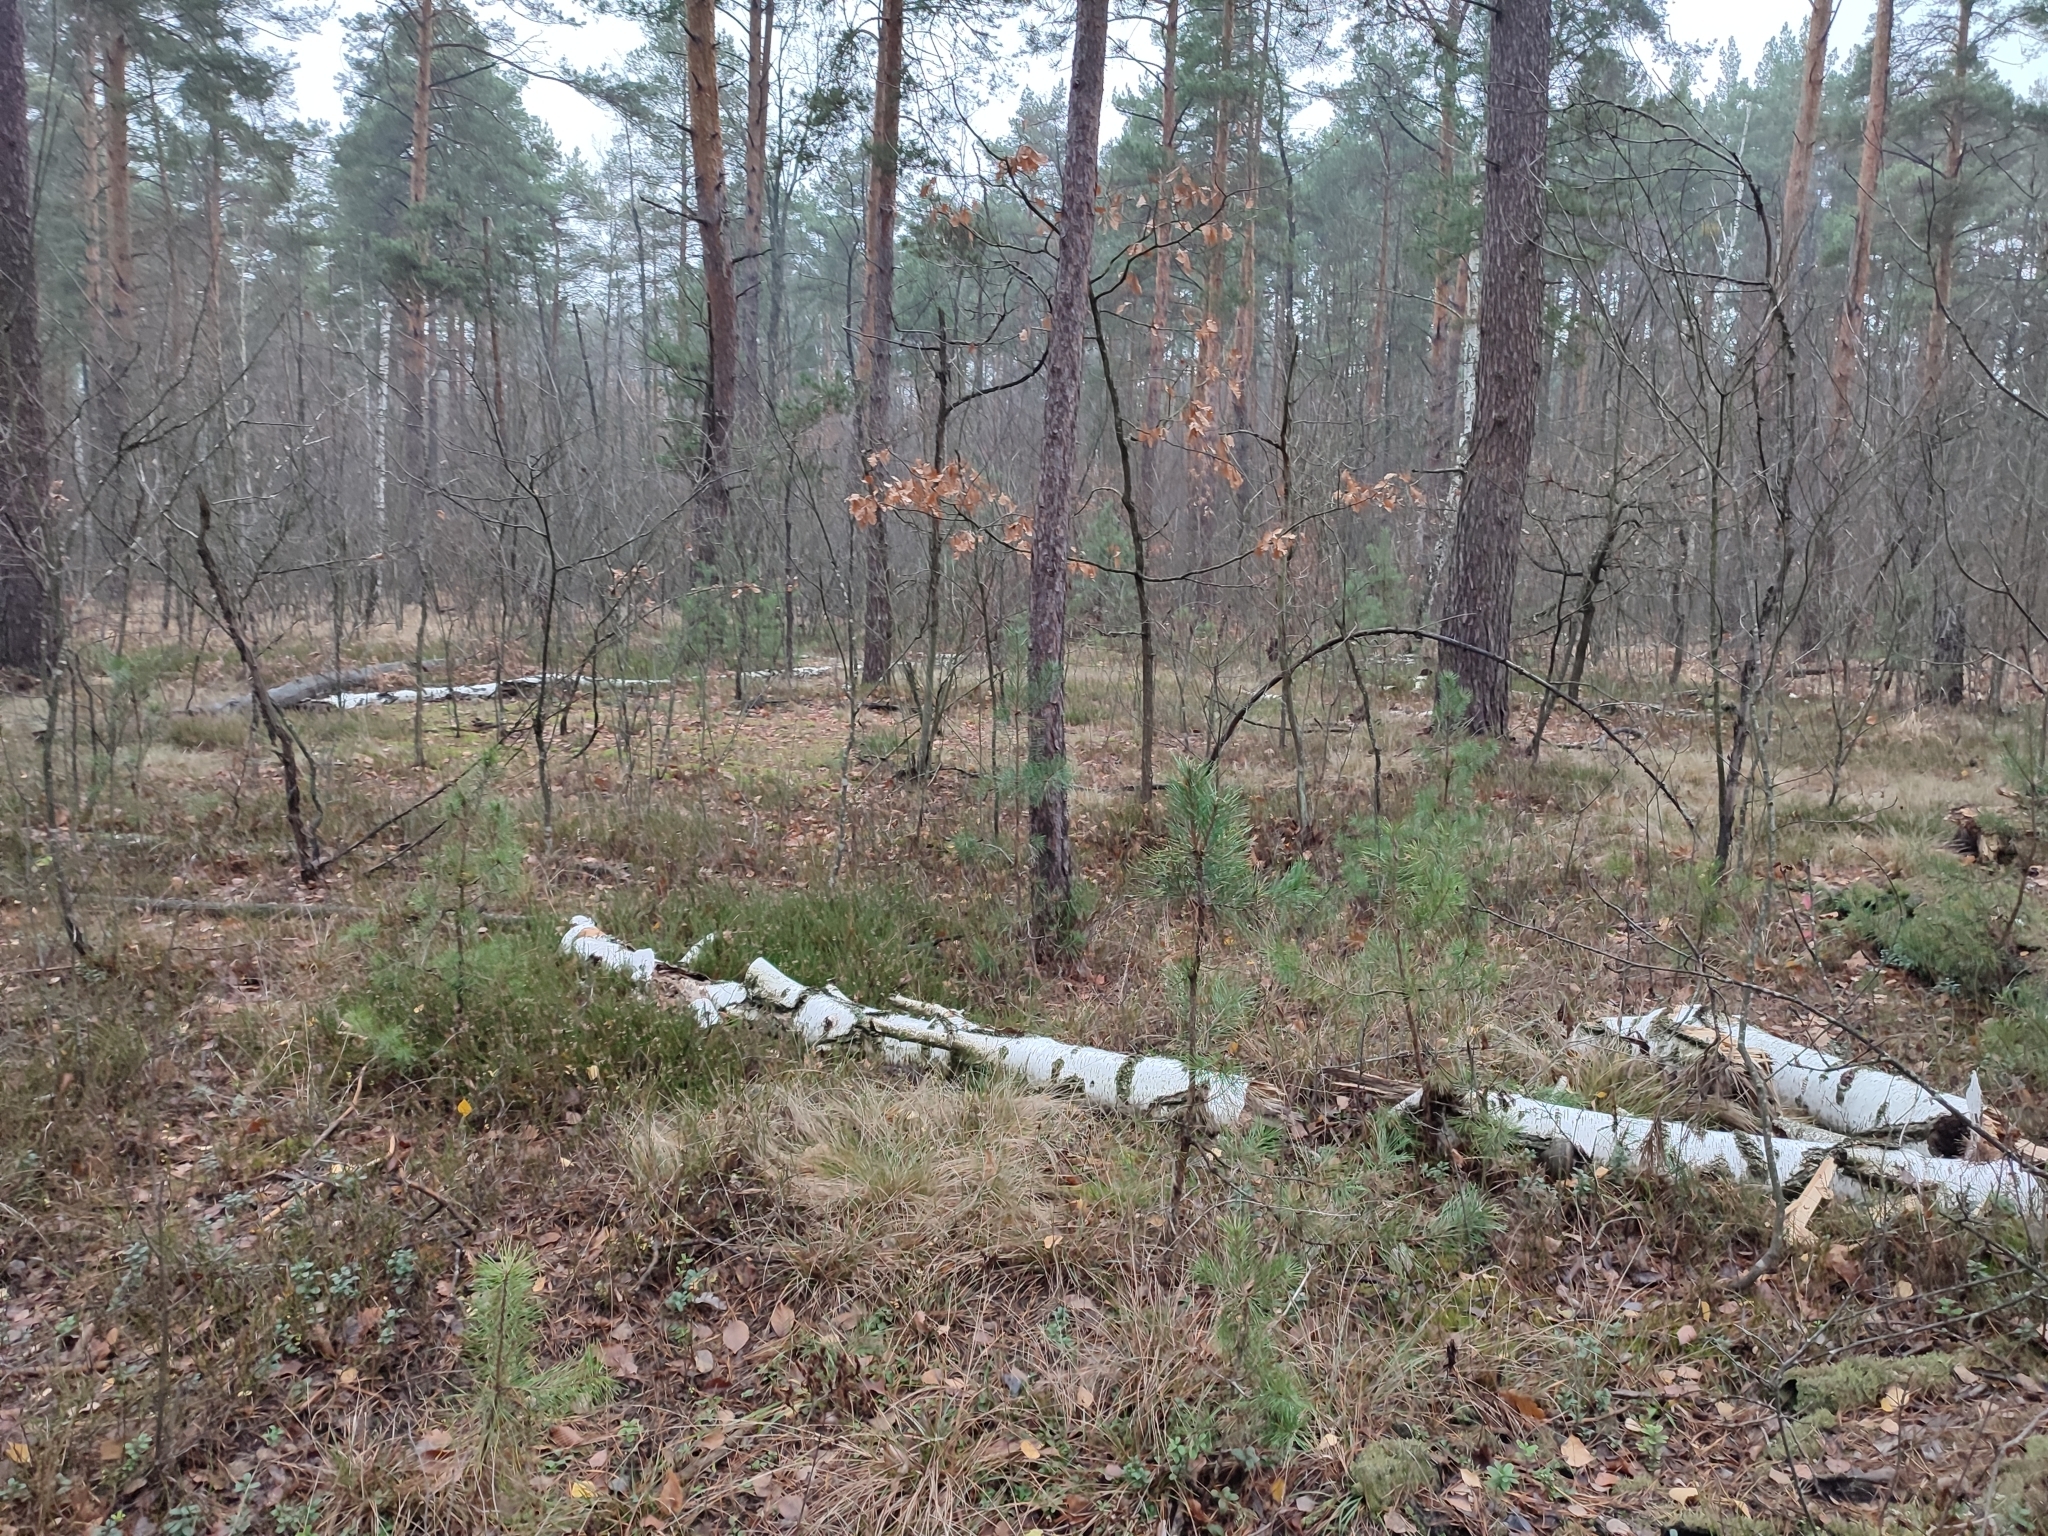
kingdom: Plantae
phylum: Tracheophyta
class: Pinopsida
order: Pinales
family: Pinaceae
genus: Pinus
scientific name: Pinus sylvestris
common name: Scots pine
